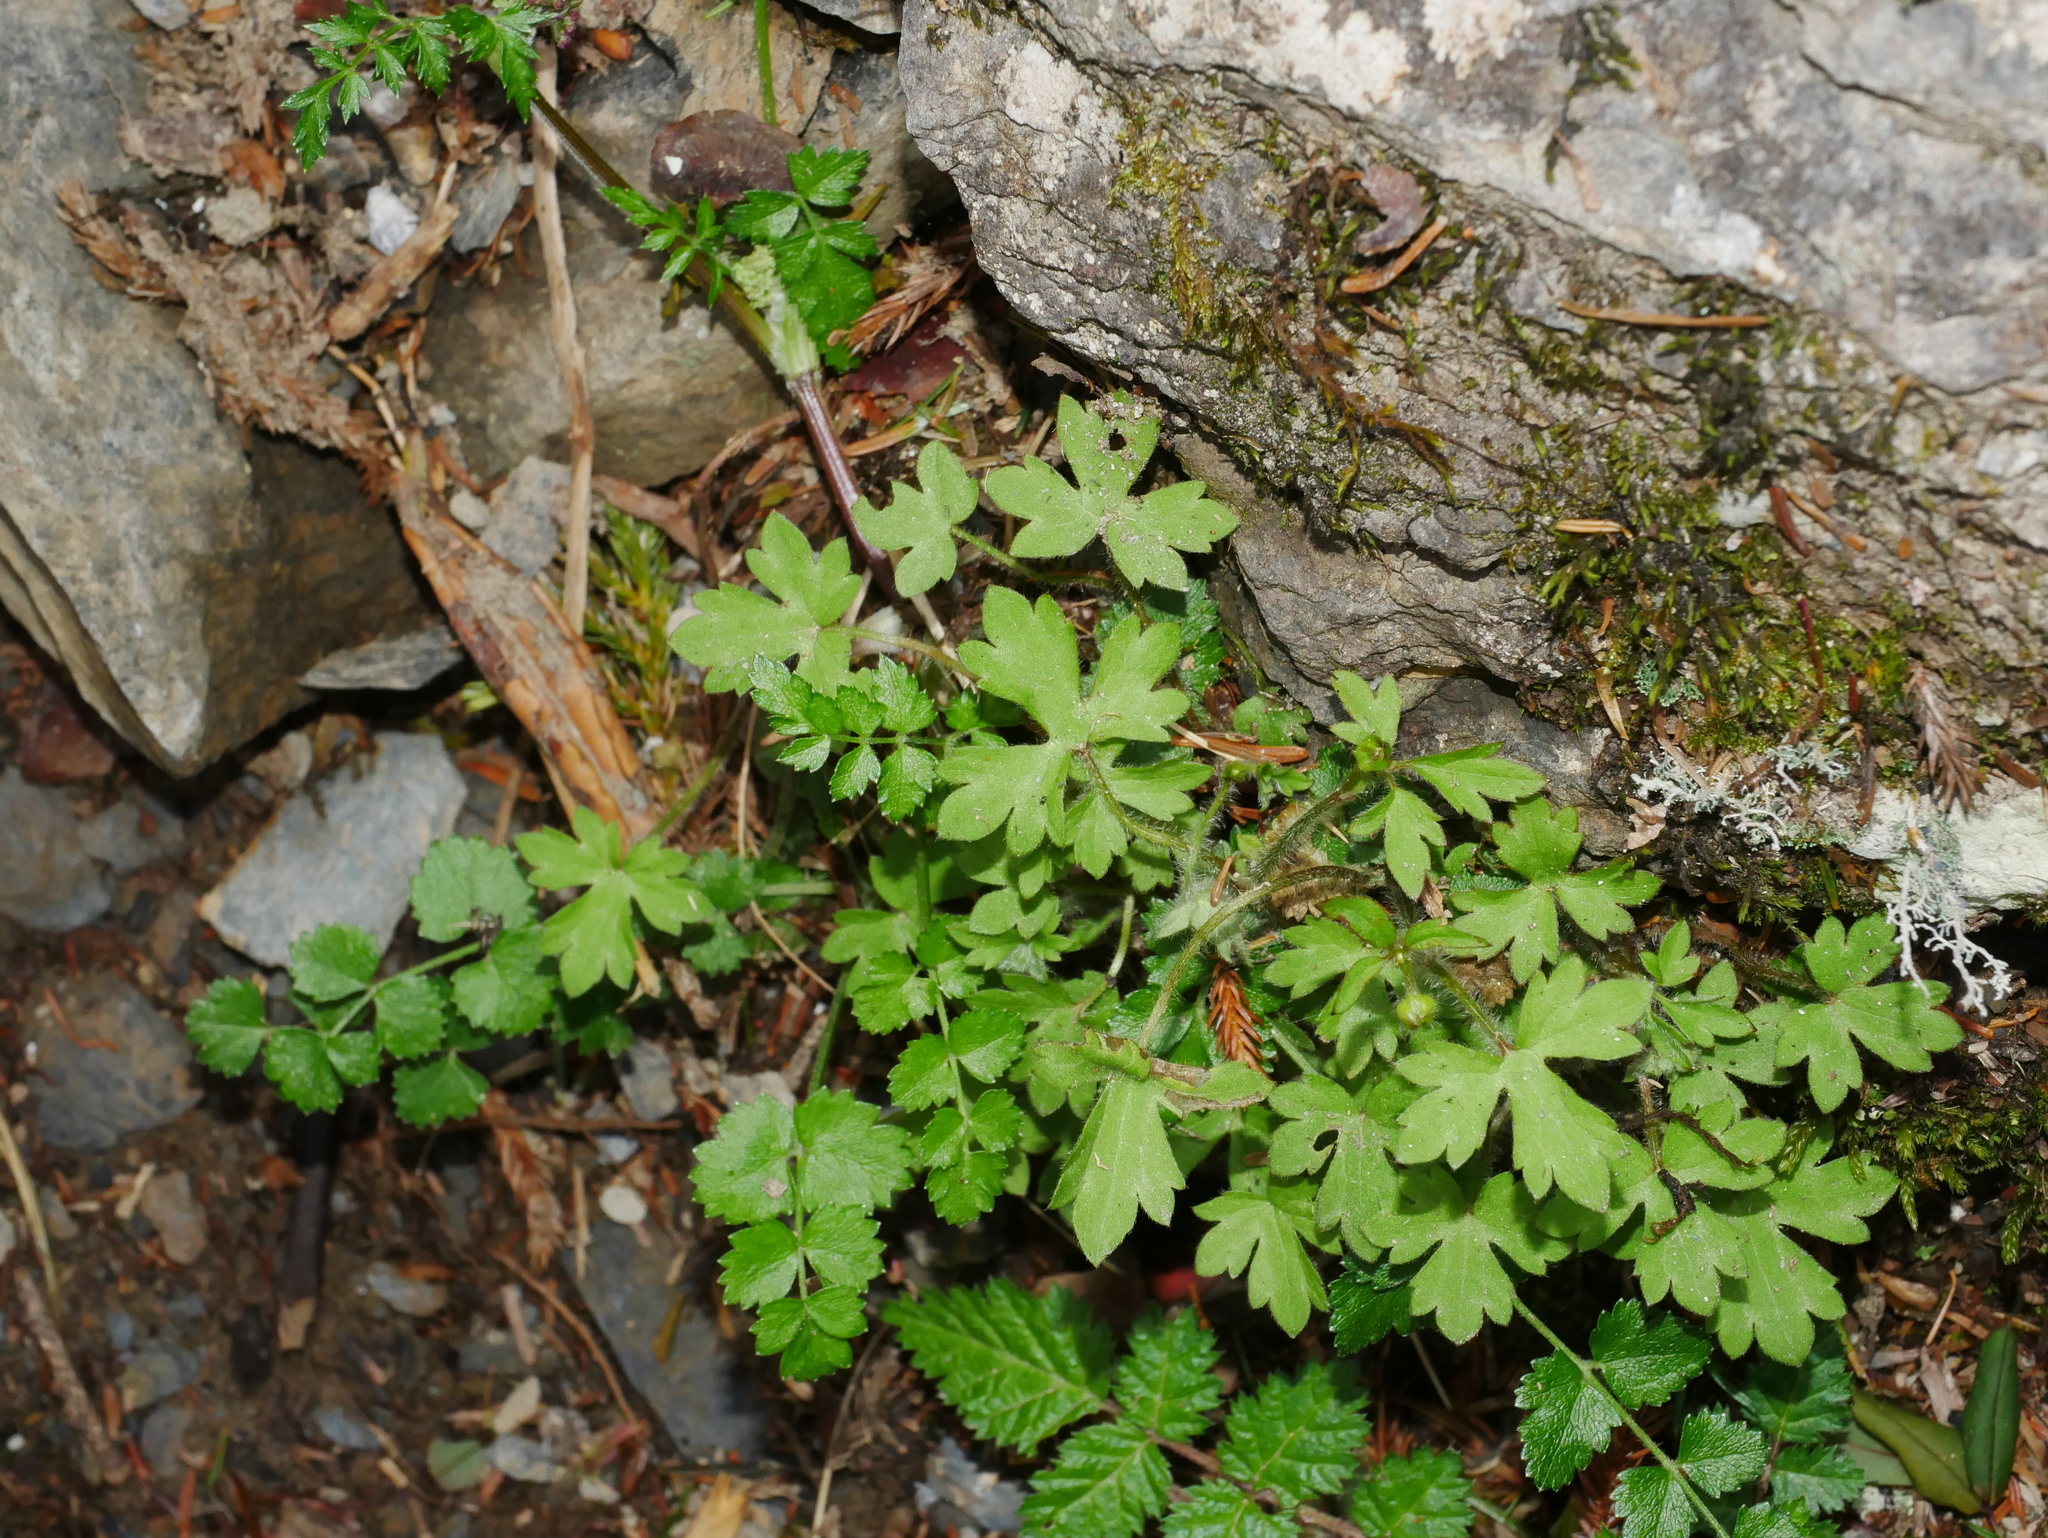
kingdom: Plantae
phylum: Tracheophyta
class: Magnoliopsida
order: Ranunculales
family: Ranunculaceae
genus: Ranunculus
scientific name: Ranunculus taisanensis
